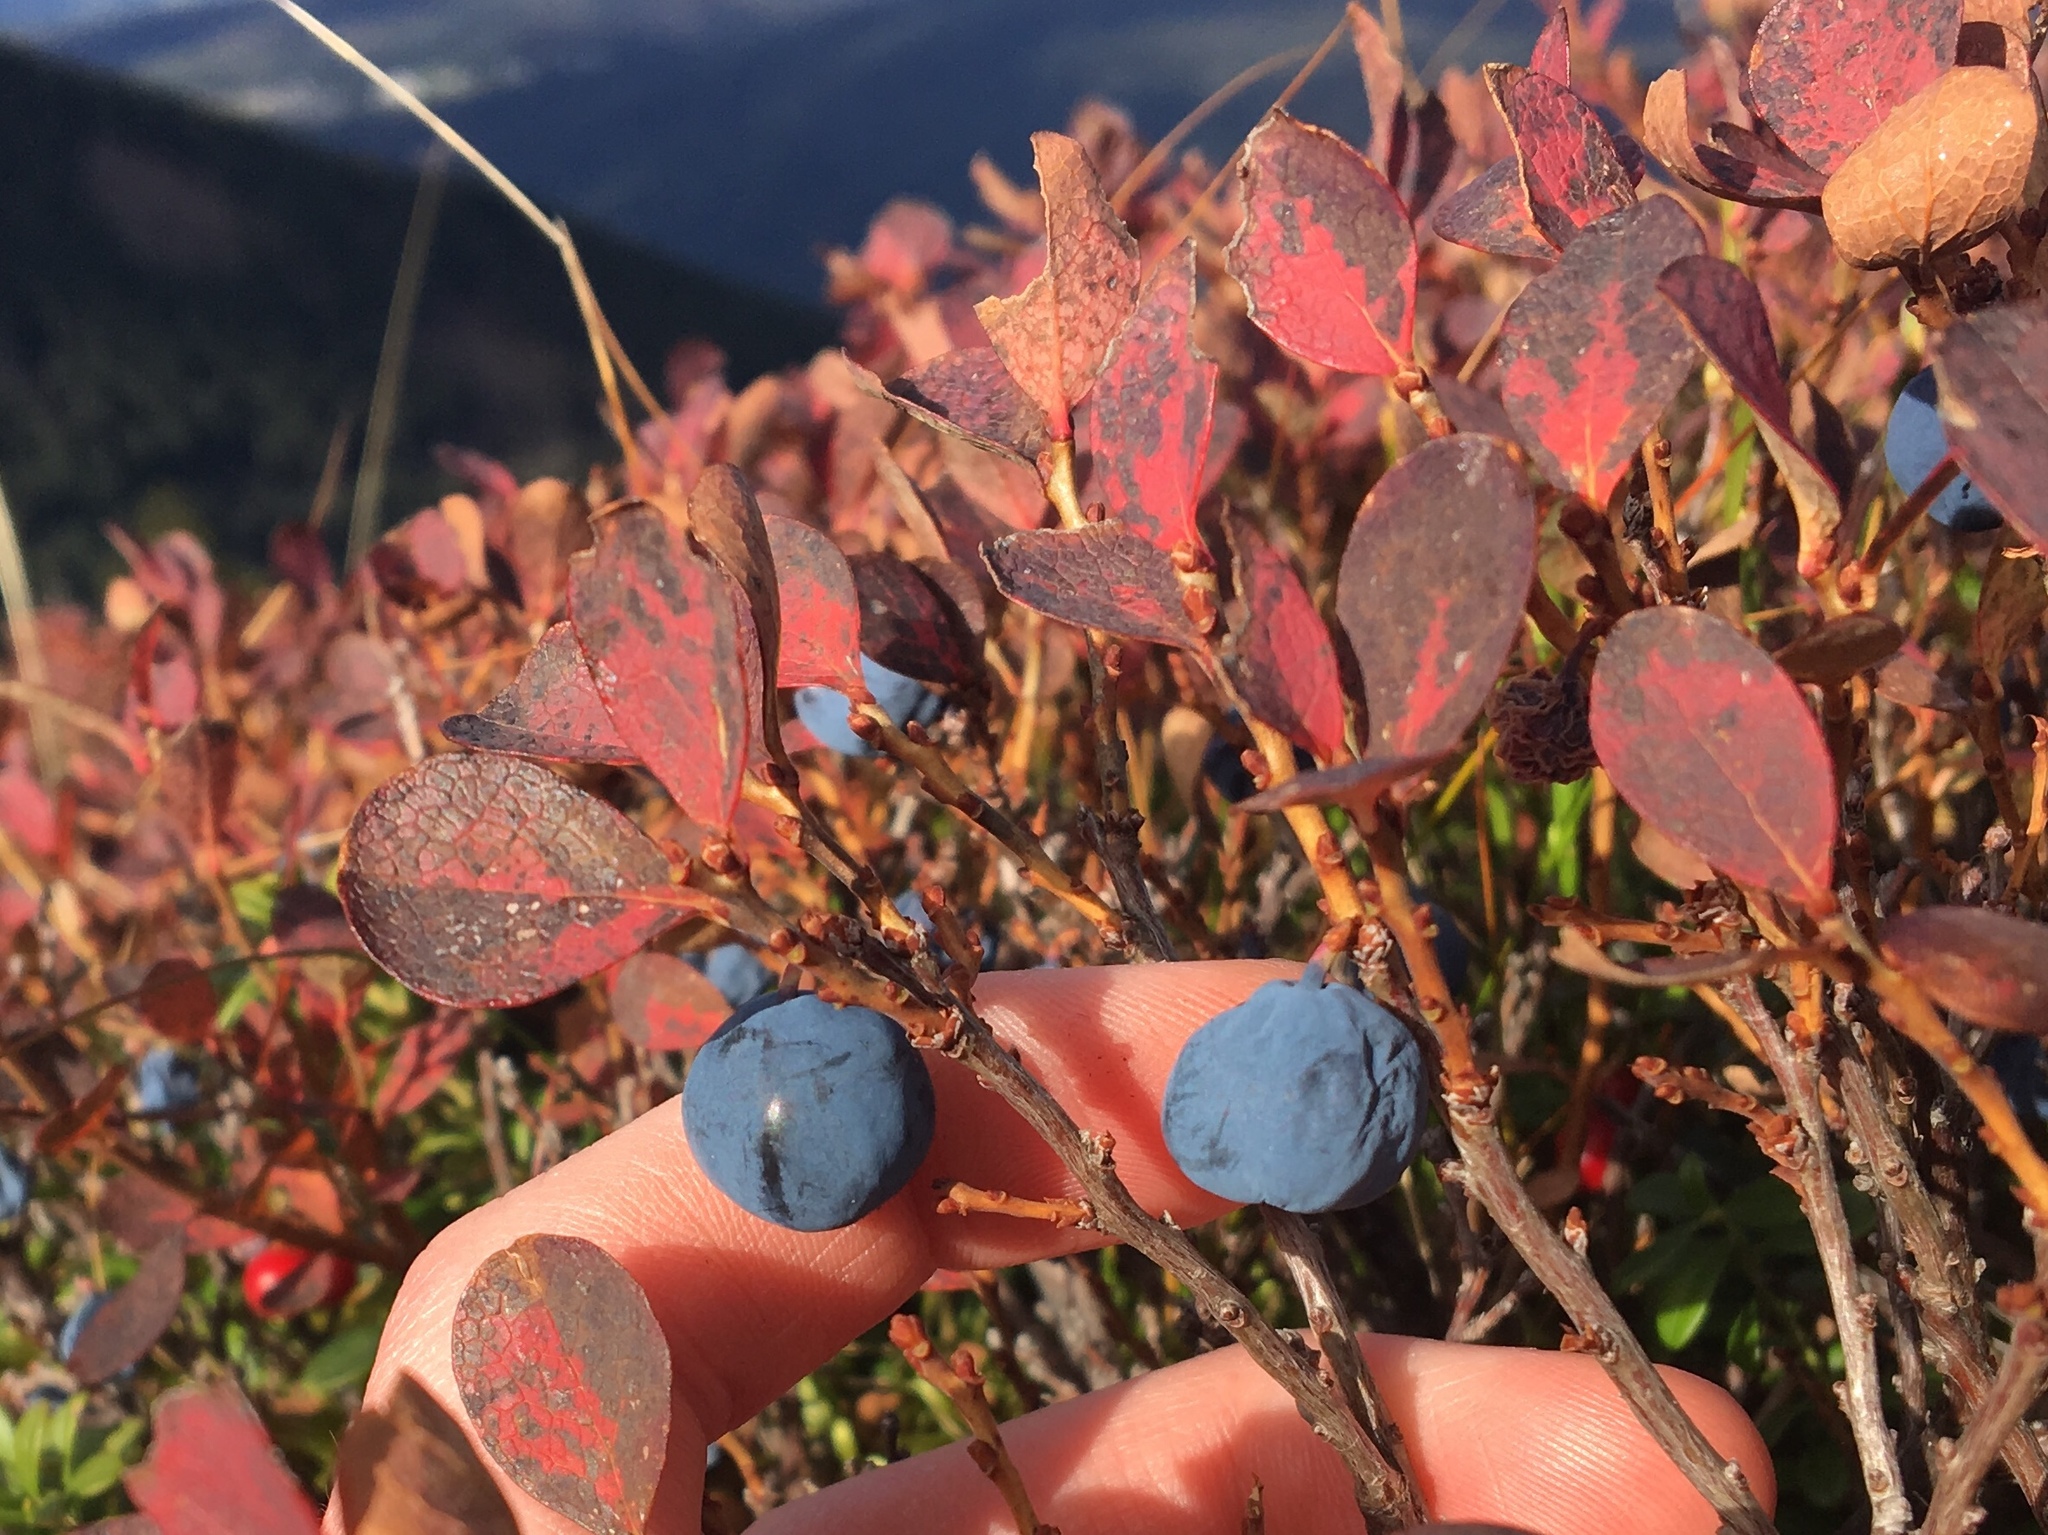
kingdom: Plantae
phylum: Tracheophyta
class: Magnoliopsida
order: Ericales
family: Ericaceae
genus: Vaccinium
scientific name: Vaccinium uliginosum
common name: Bog bilberry
